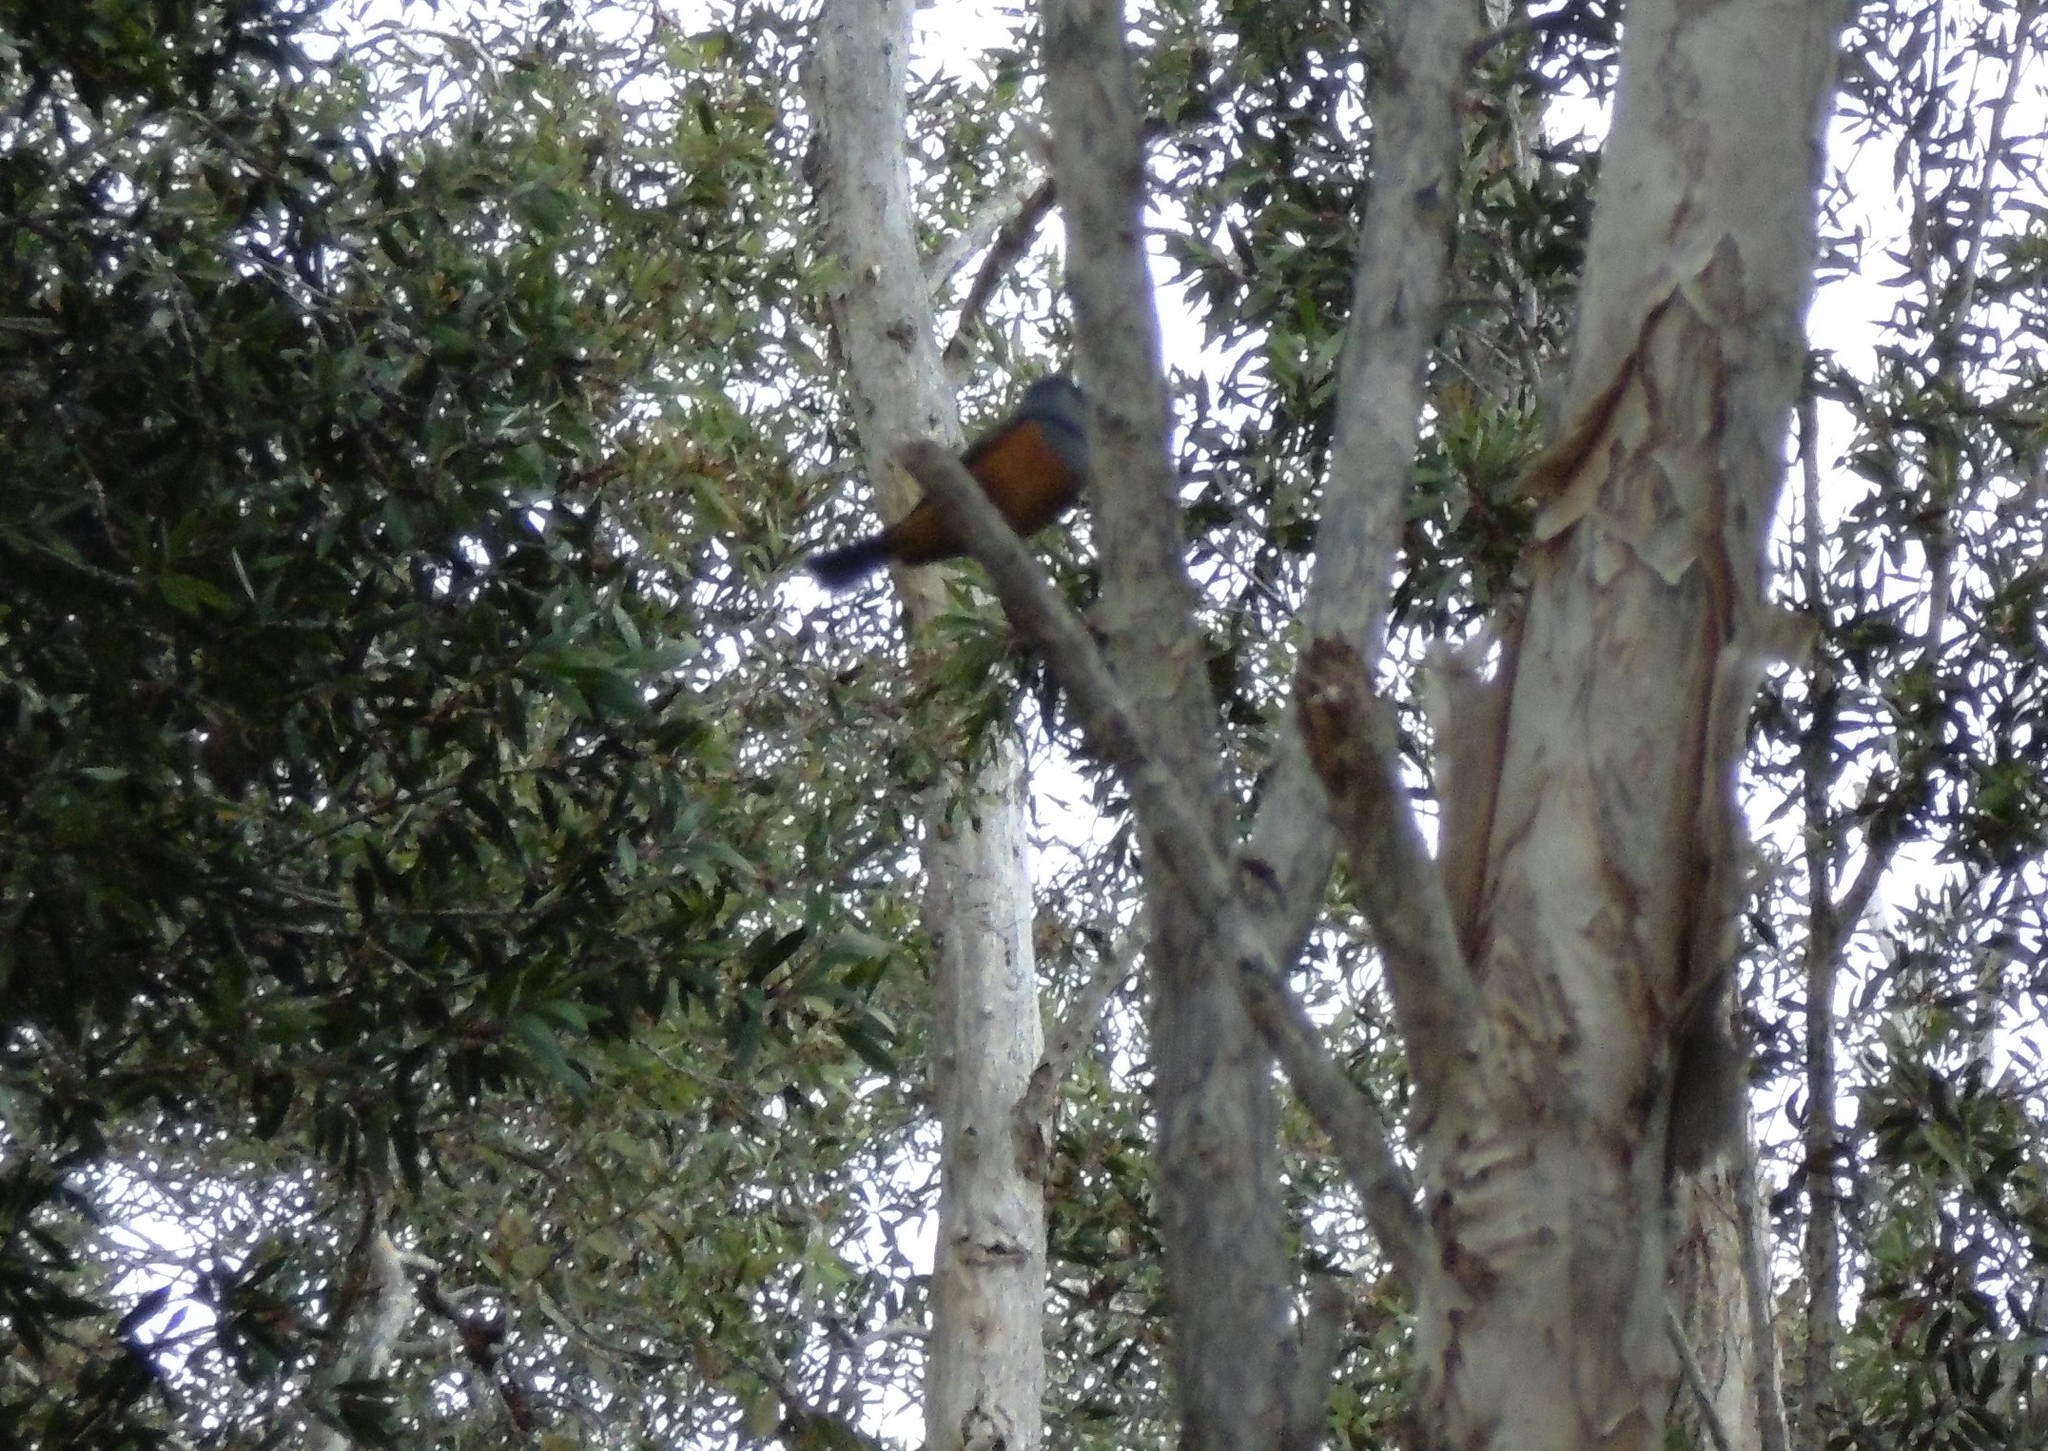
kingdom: Animalia
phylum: Chordata
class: Aves
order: Passeriformes
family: Monarchidae
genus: Monarcha
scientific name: Monarcha melanopsis
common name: Black-faced monarch
